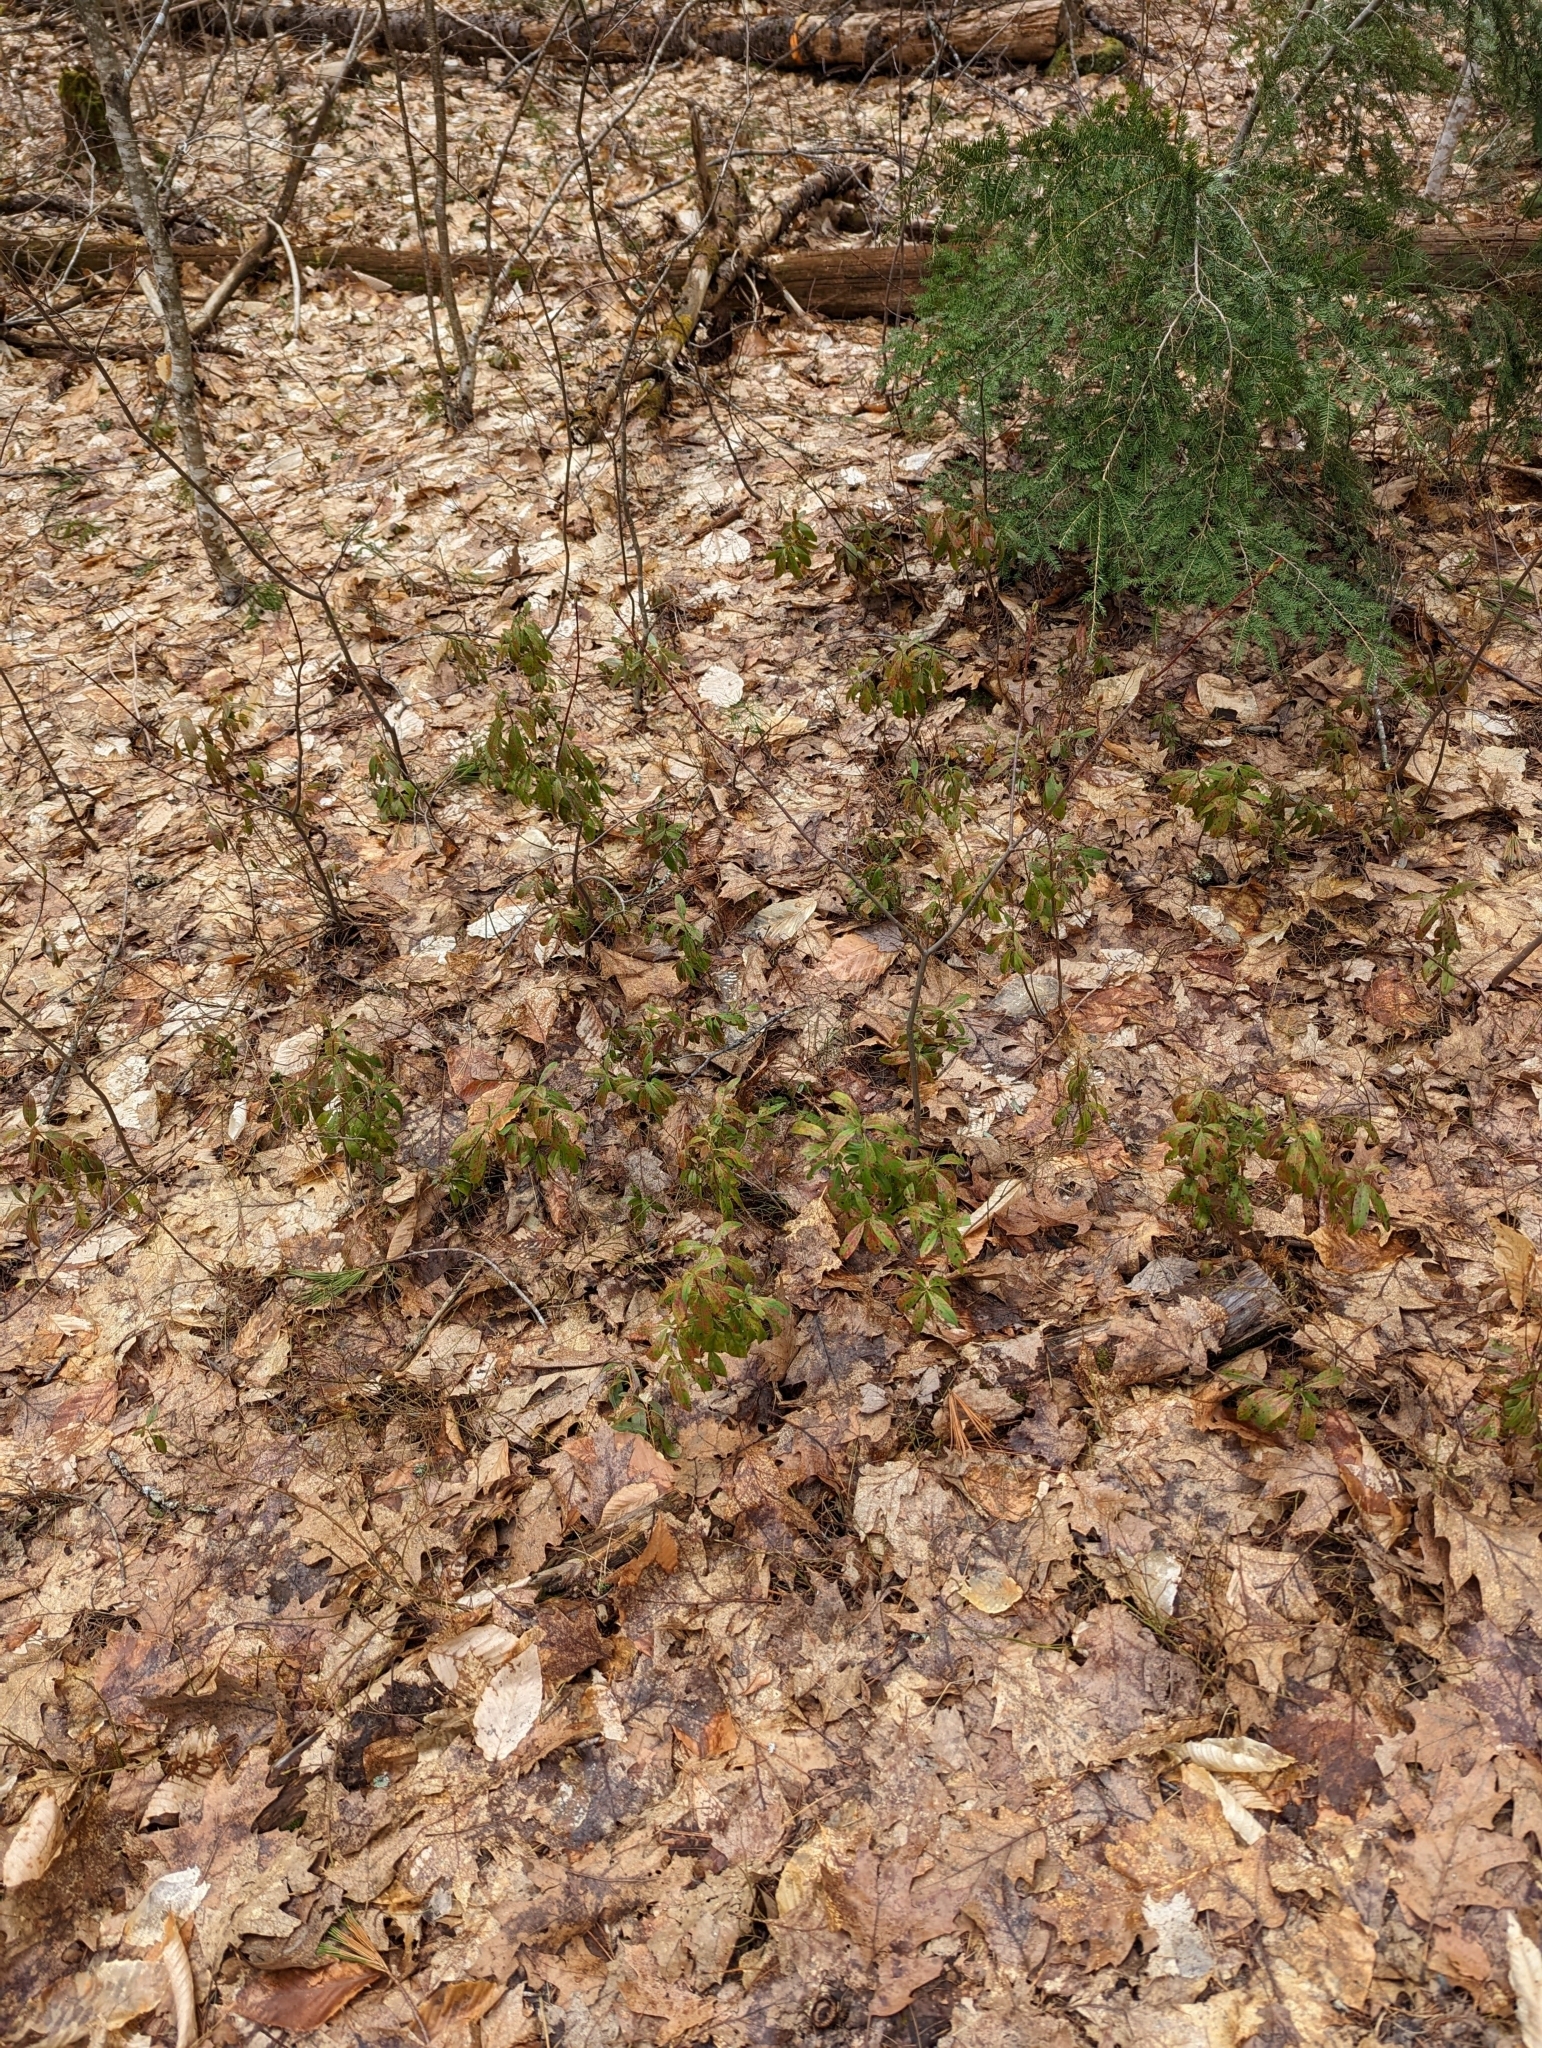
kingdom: Plantae
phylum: Tracheophyta
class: Magnoliopsida
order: Ericales
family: Ericaceae
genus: Kalmia
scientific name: Kalmia angustifolia
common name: Sheep-laurel
